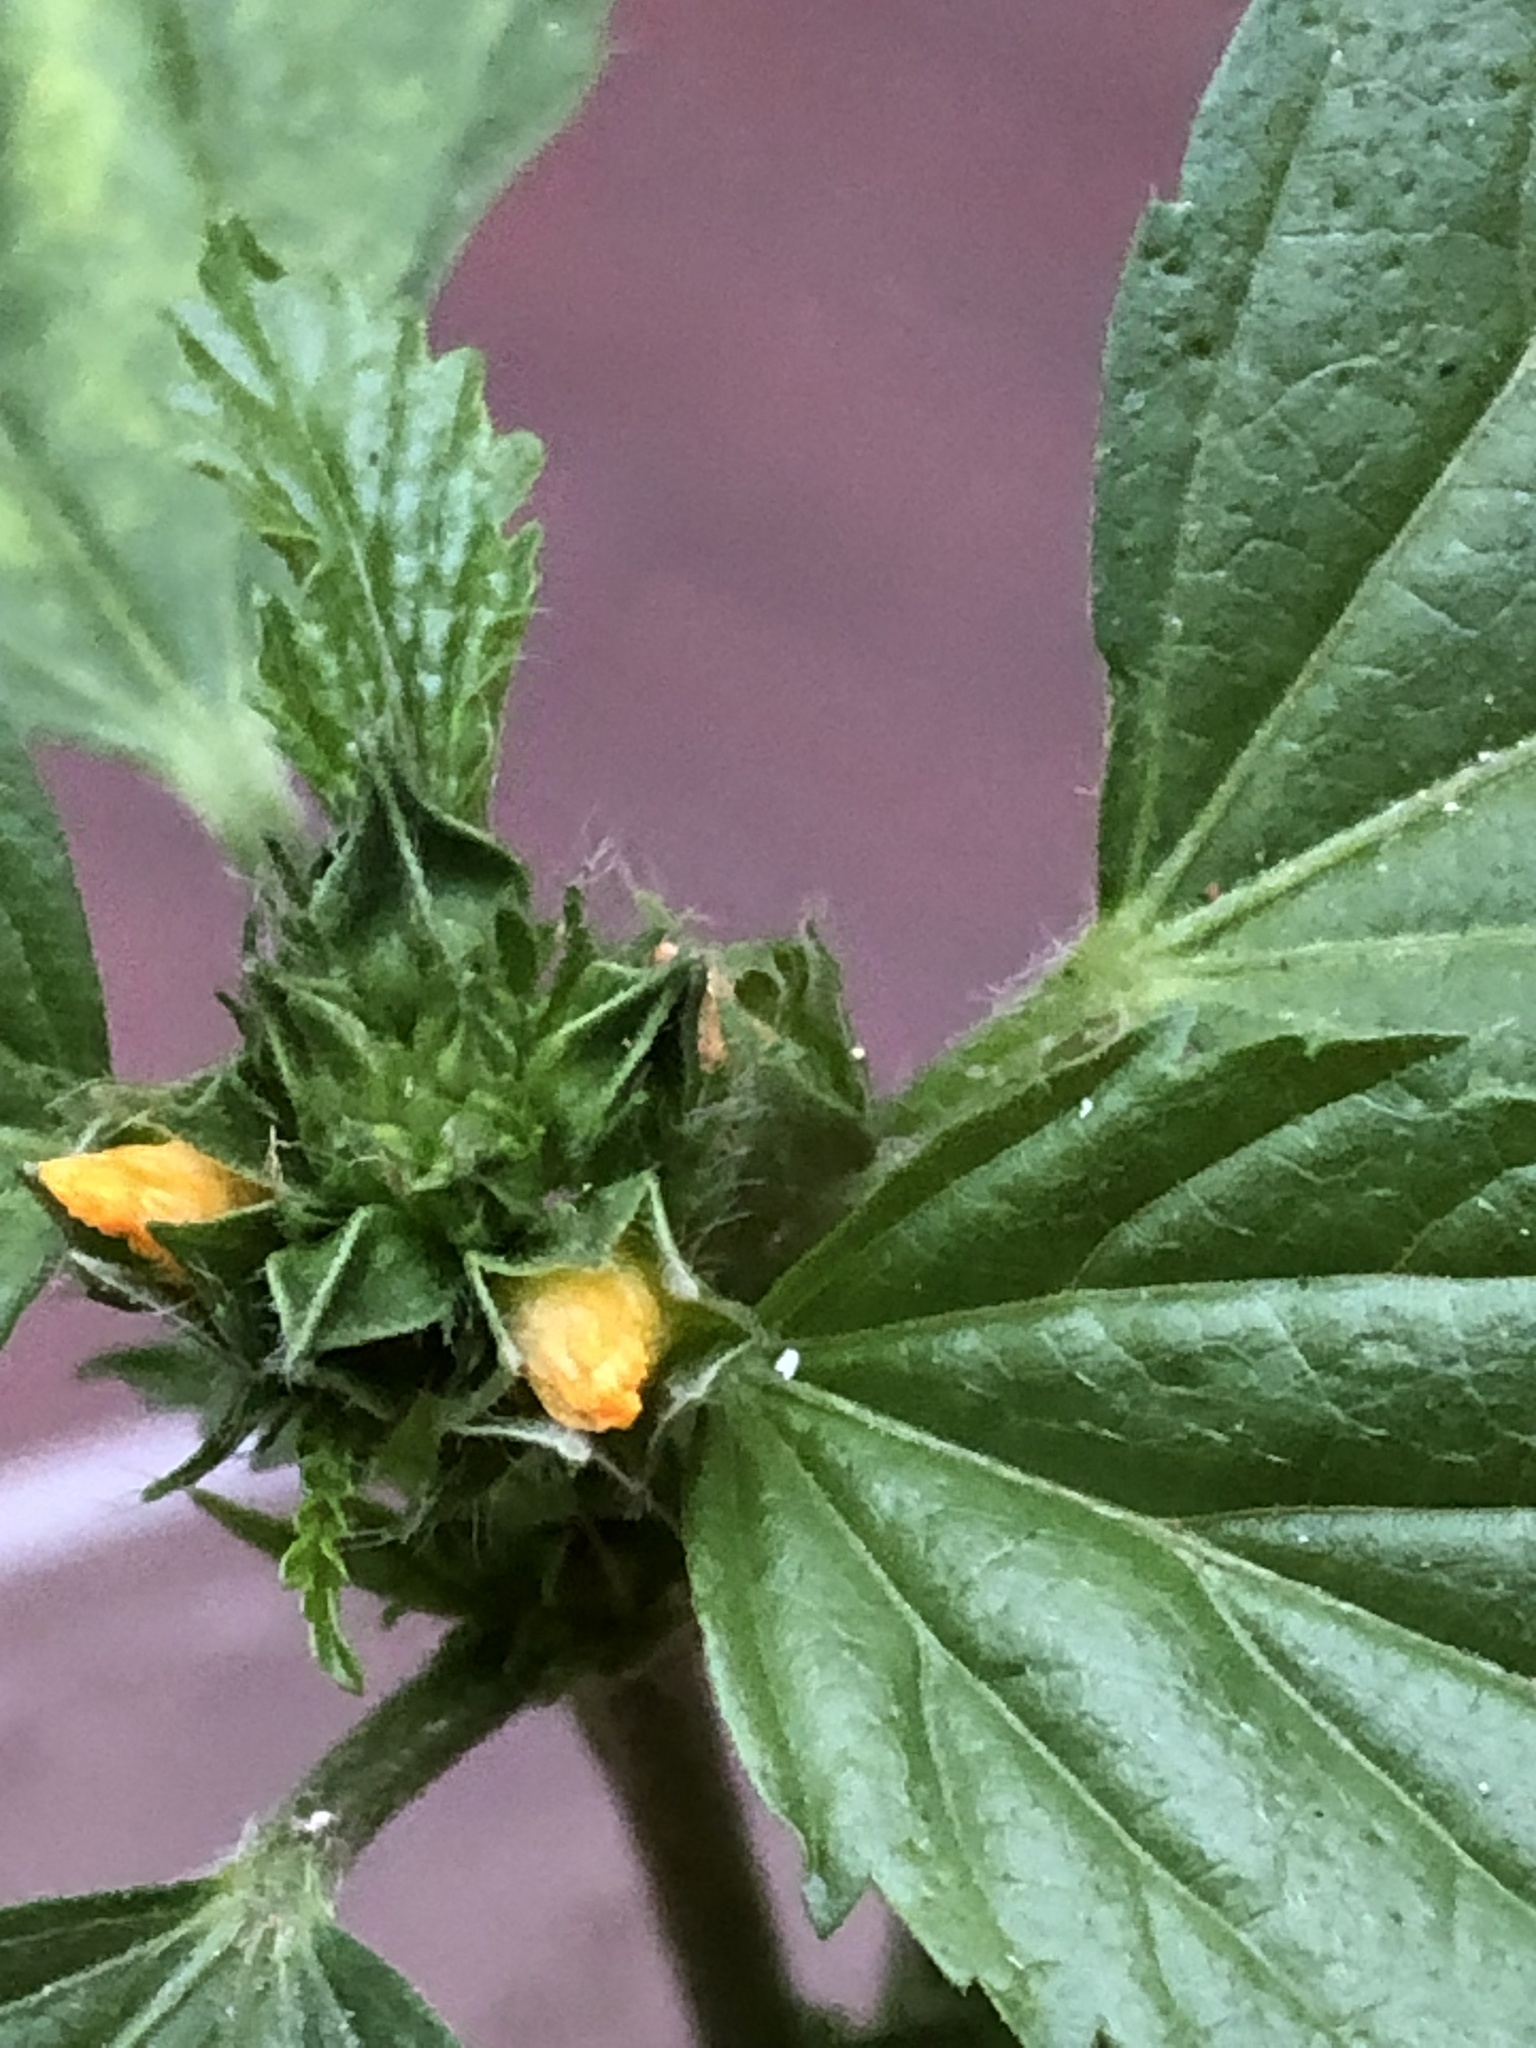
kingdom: Plantae
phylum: Tracheophyta
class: Magnoliopsida
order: Malvales
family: Malvaceae
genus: Malvastrum
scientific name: Malvastrum coromandelianum
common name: Threelobe false mallow
